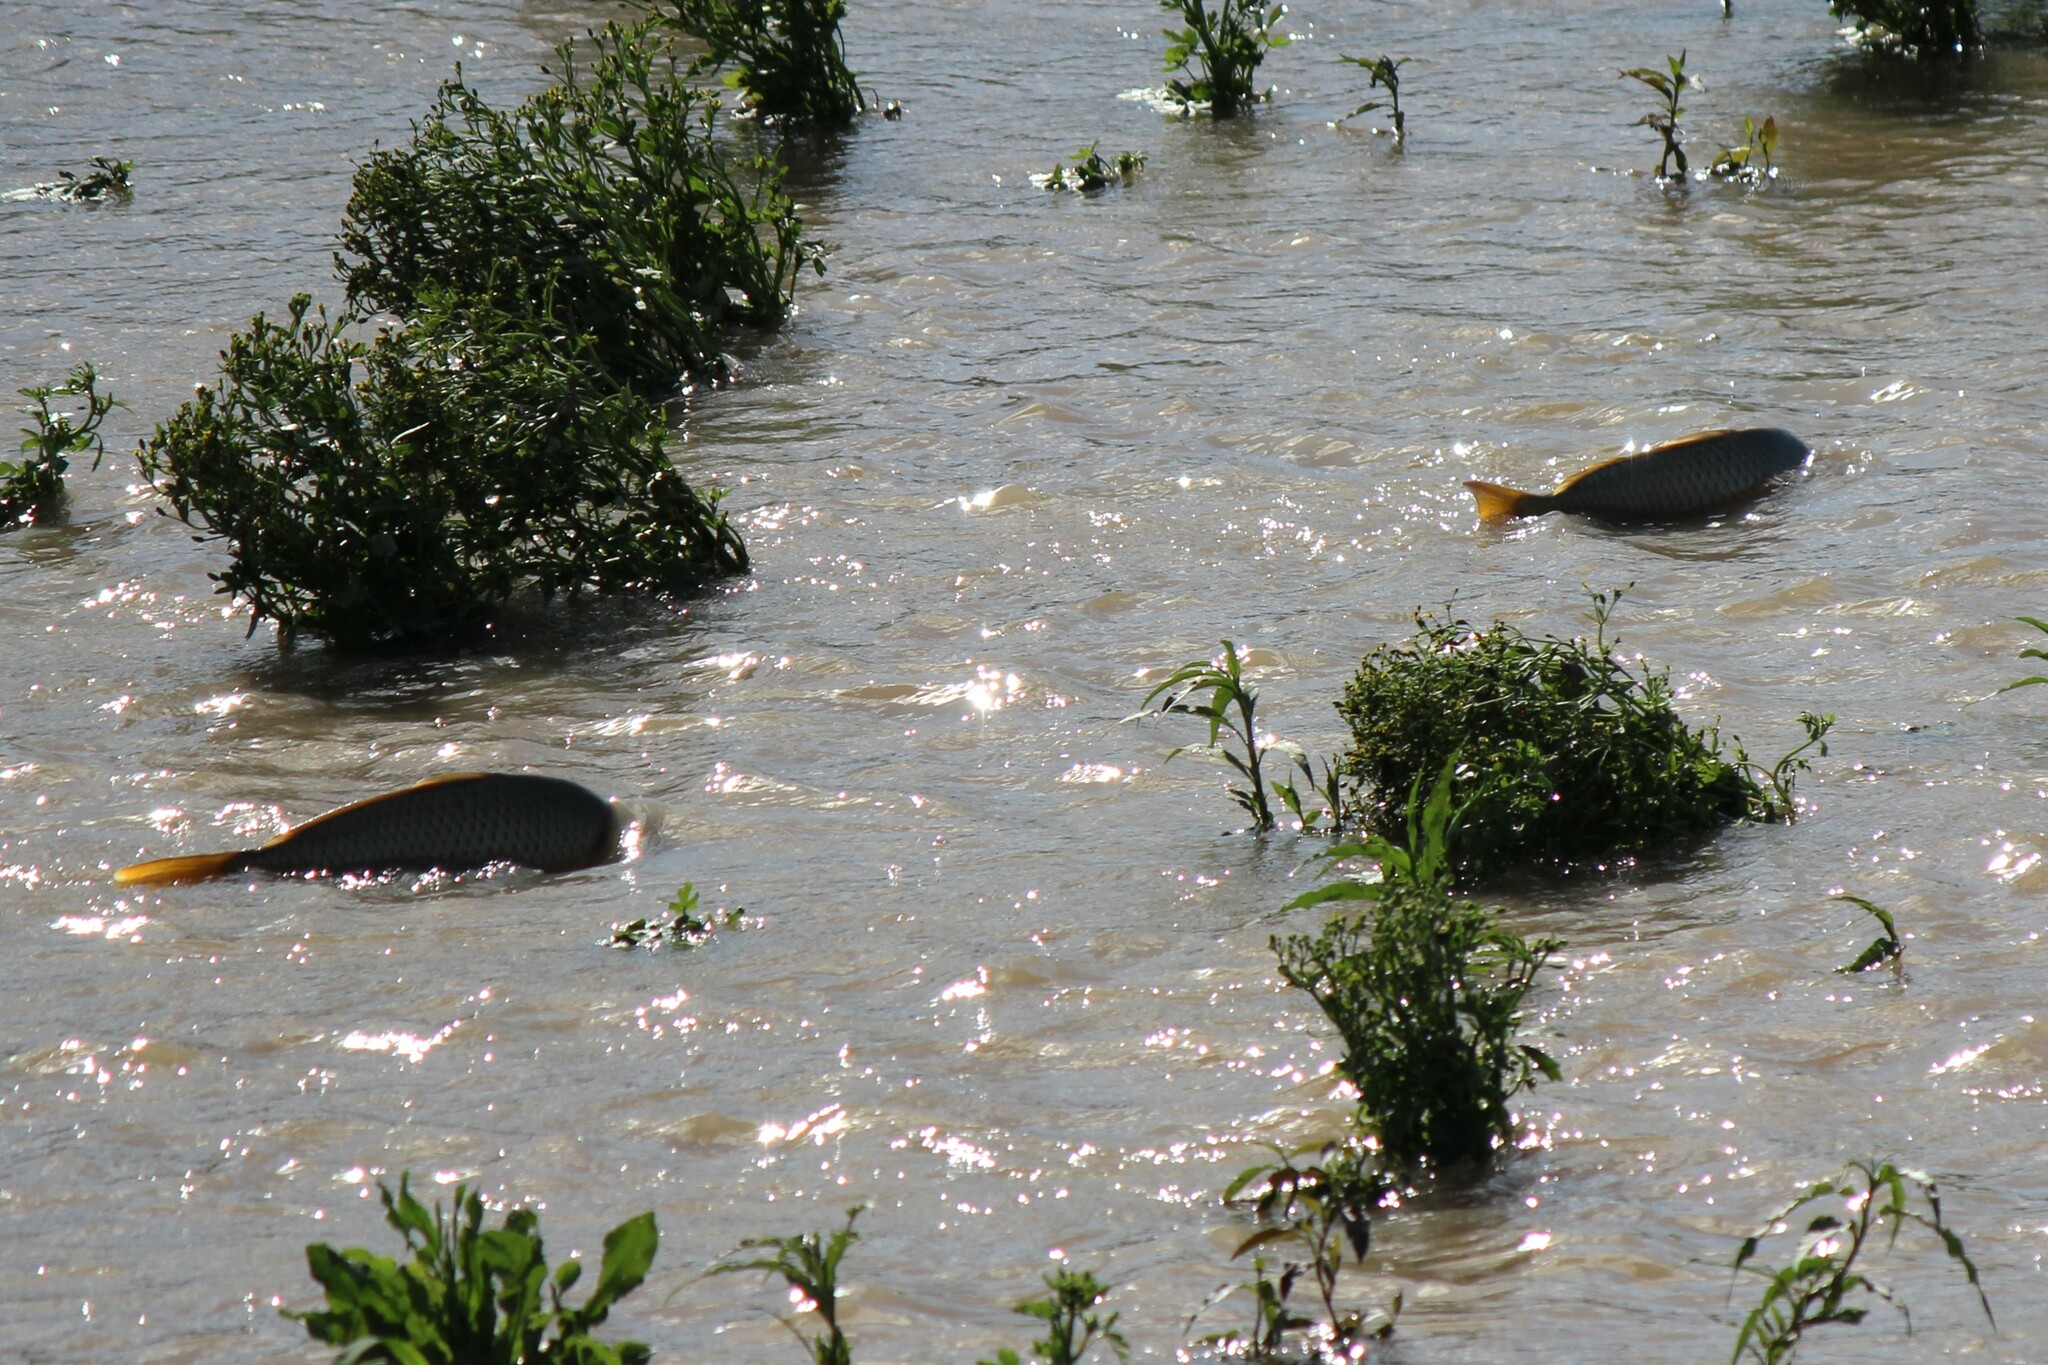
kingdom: Animalia
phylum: Chordata
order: Cypriniformes
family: Cyprinidae
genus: Cyprinus
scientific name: Cyprinus carpio
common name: Common carp
